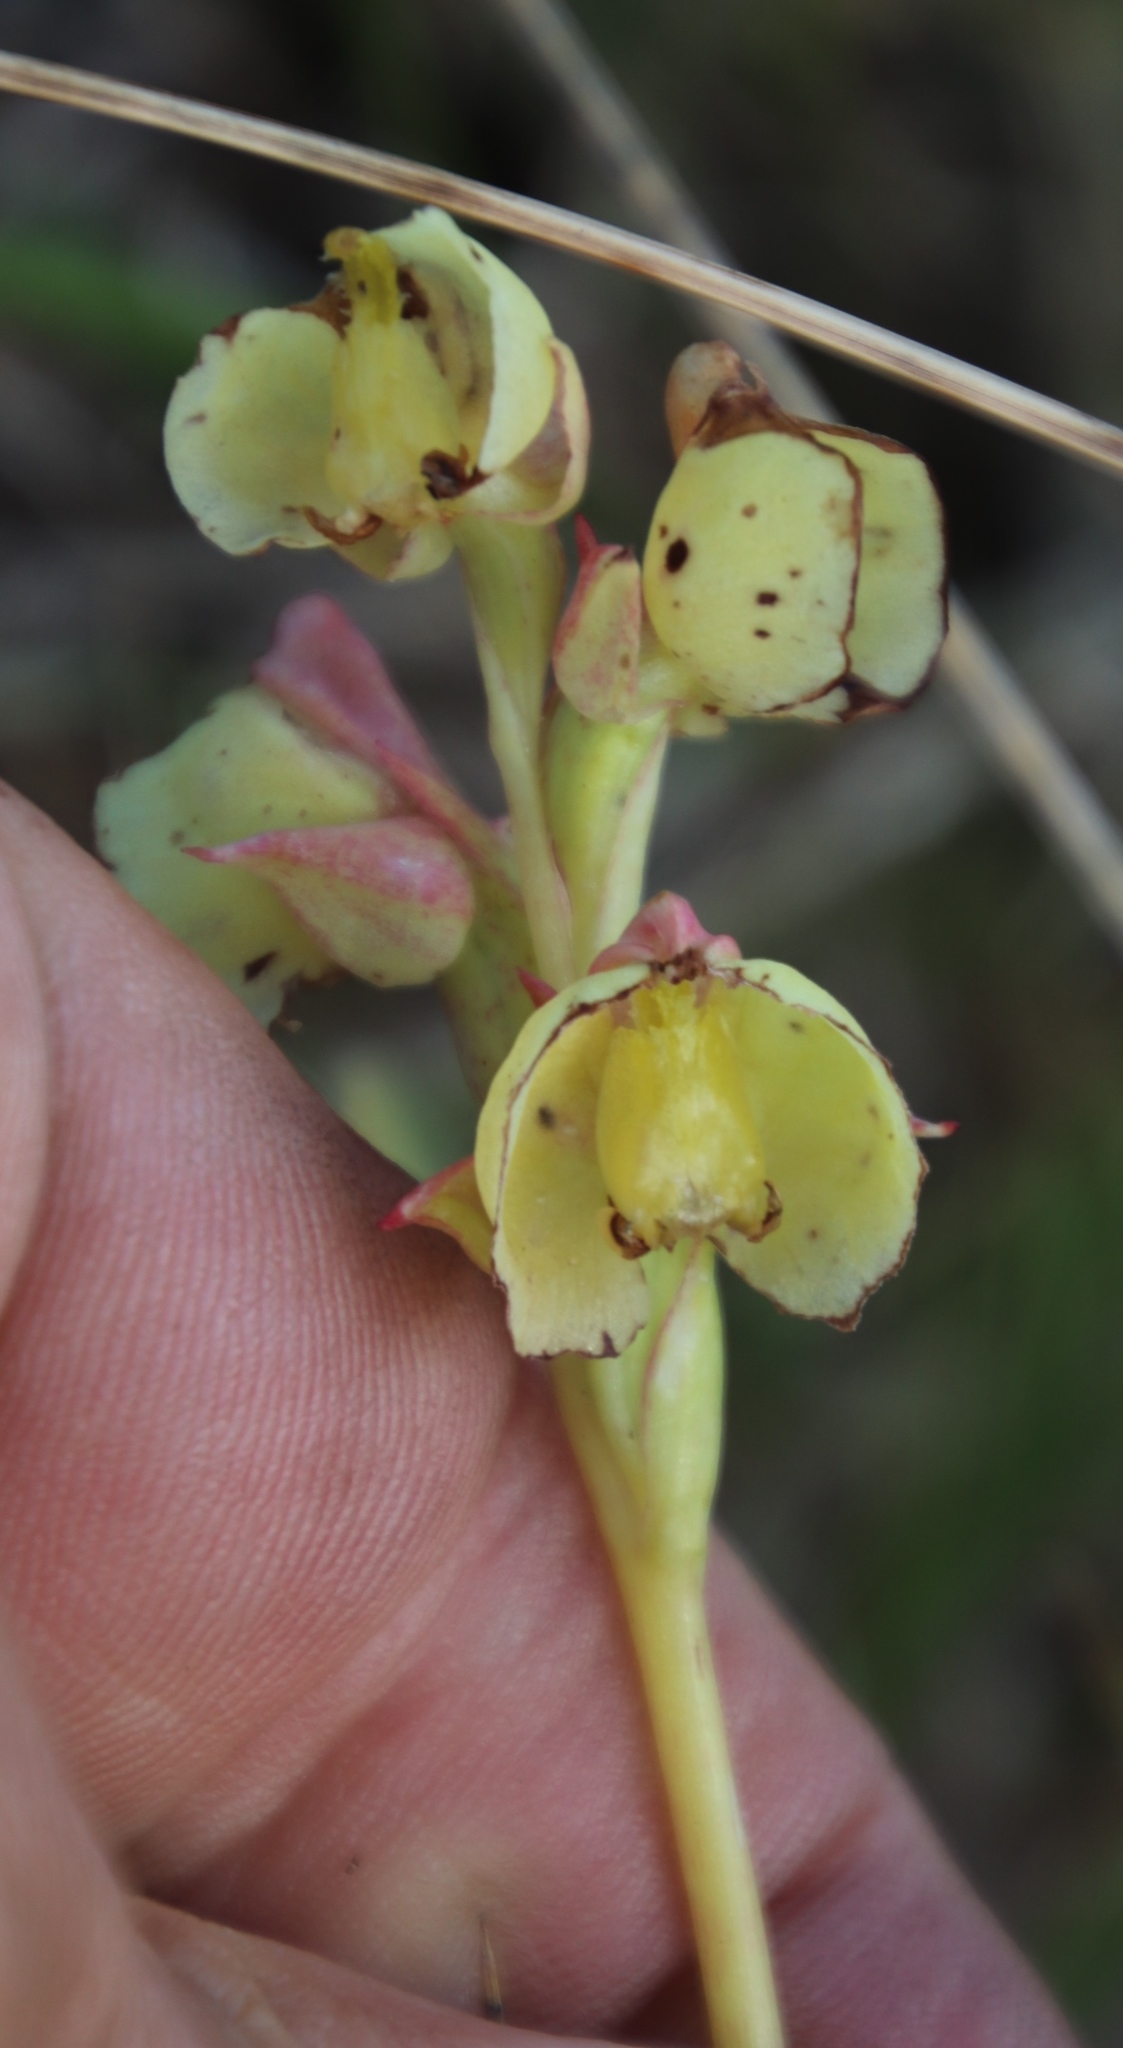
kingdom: Plantae
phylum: Tracheophyta
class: Liliopsida
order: Asparagales
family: Orchidaceae
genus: Pterygodium
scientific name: Pterygodium catholicum
